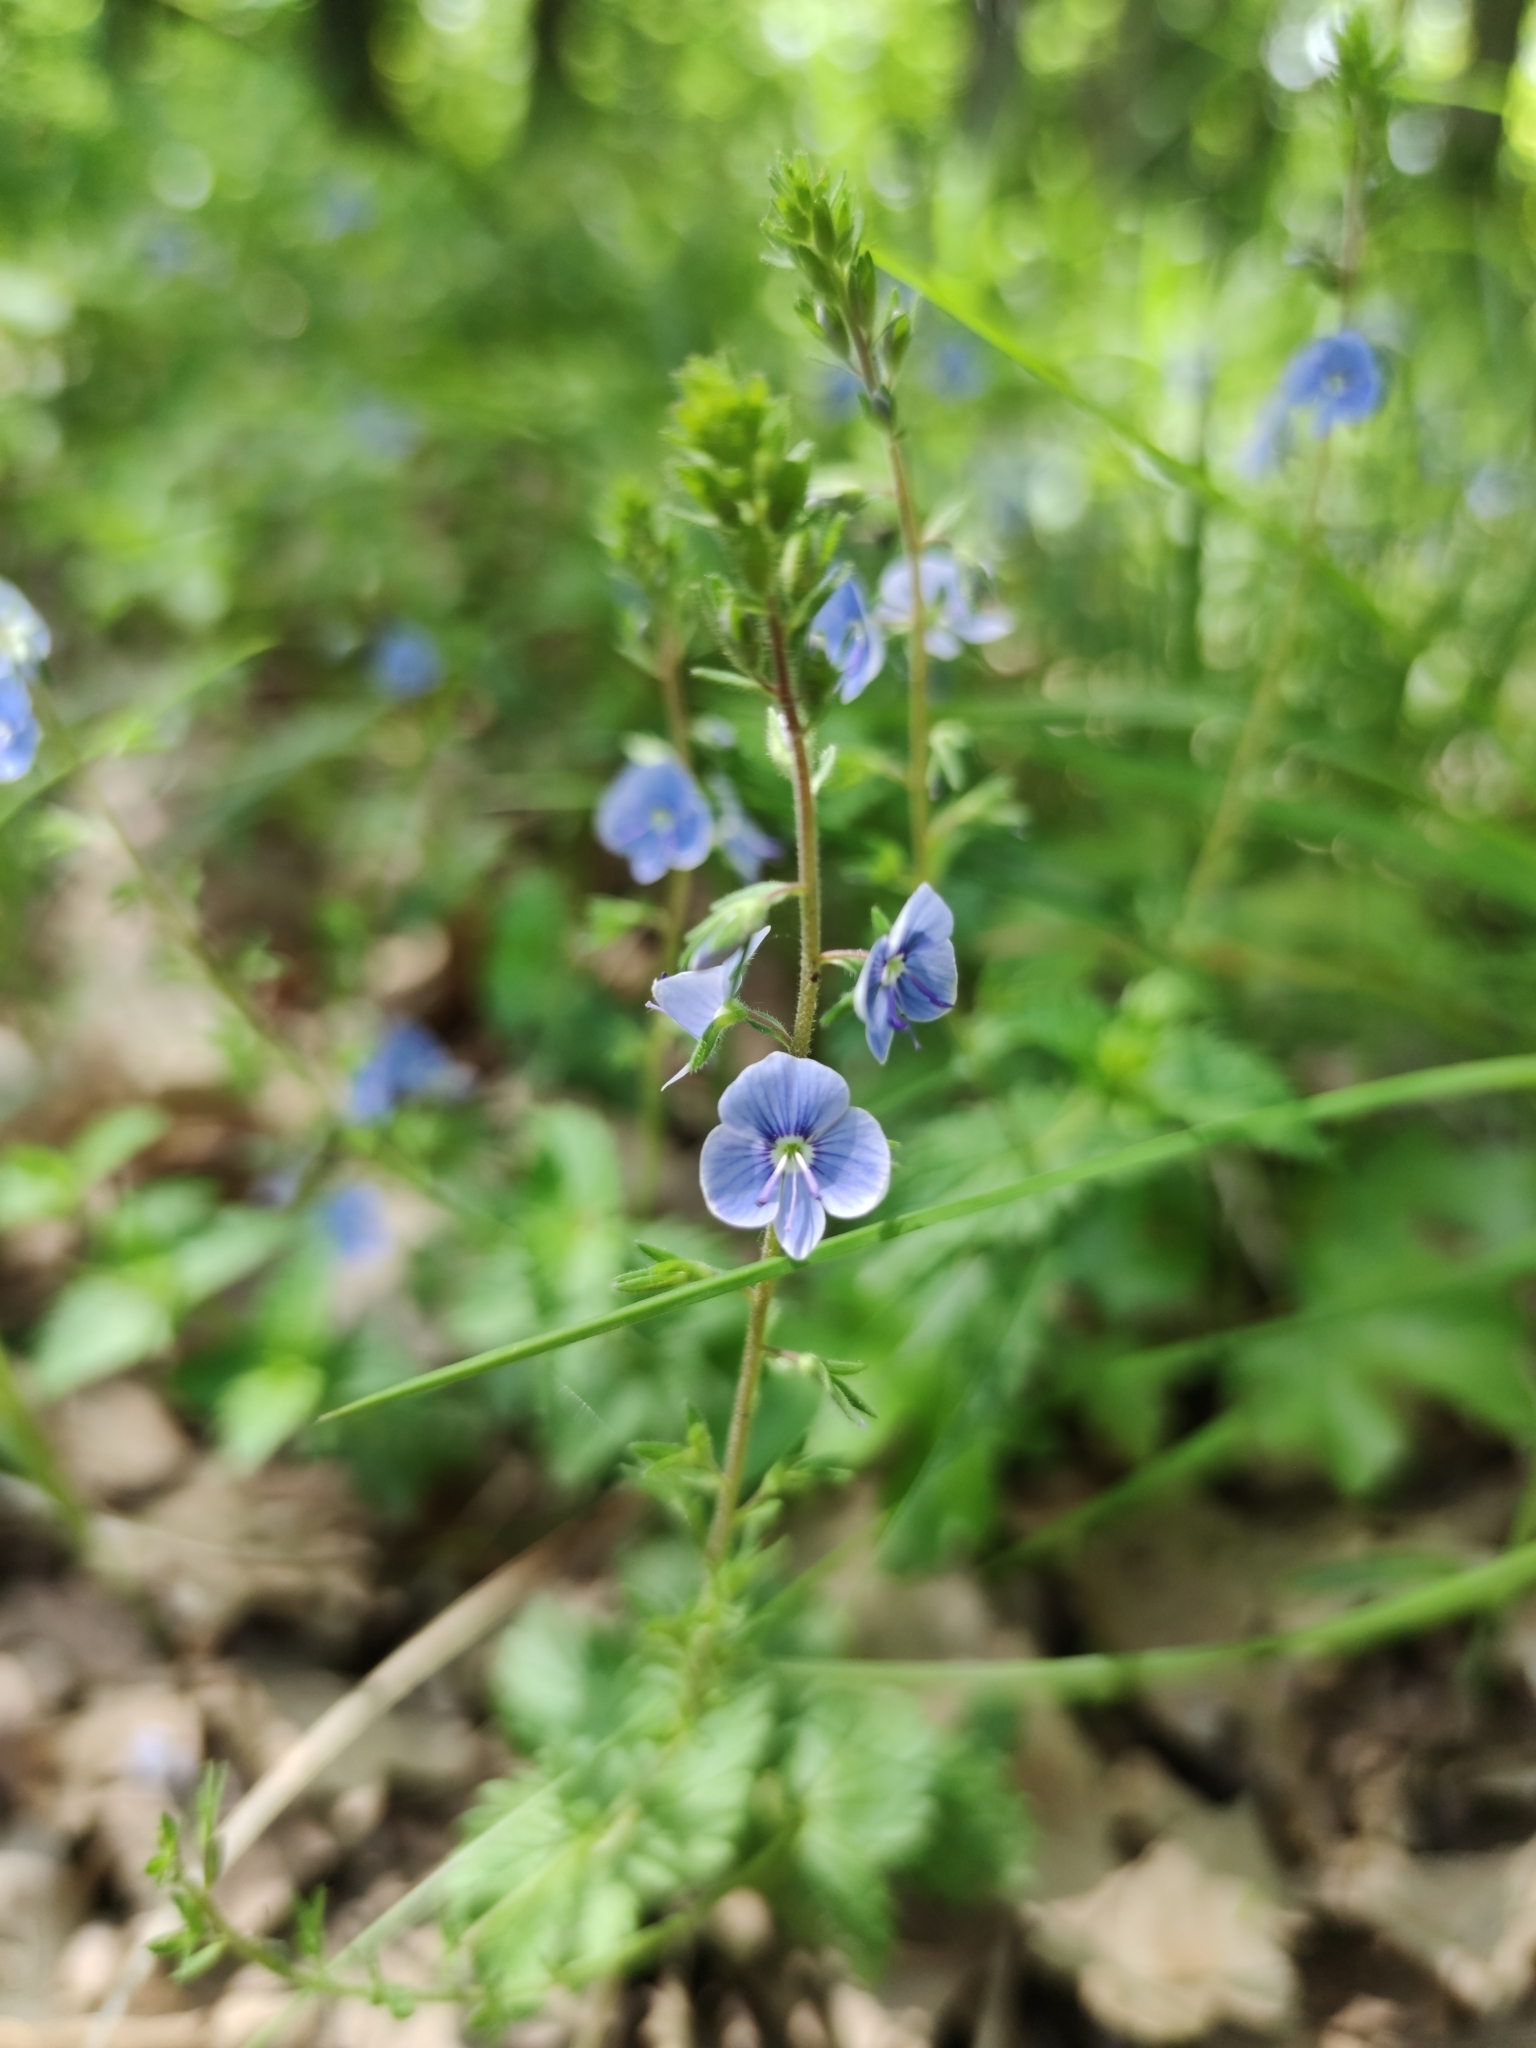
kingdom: Plantae
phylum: Tracheophyta
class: Magnoliopsida
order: Lamiales
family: Plantaginaceae
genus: Veronica
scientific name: Veronica chamaedrys
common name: Germander speedwell
